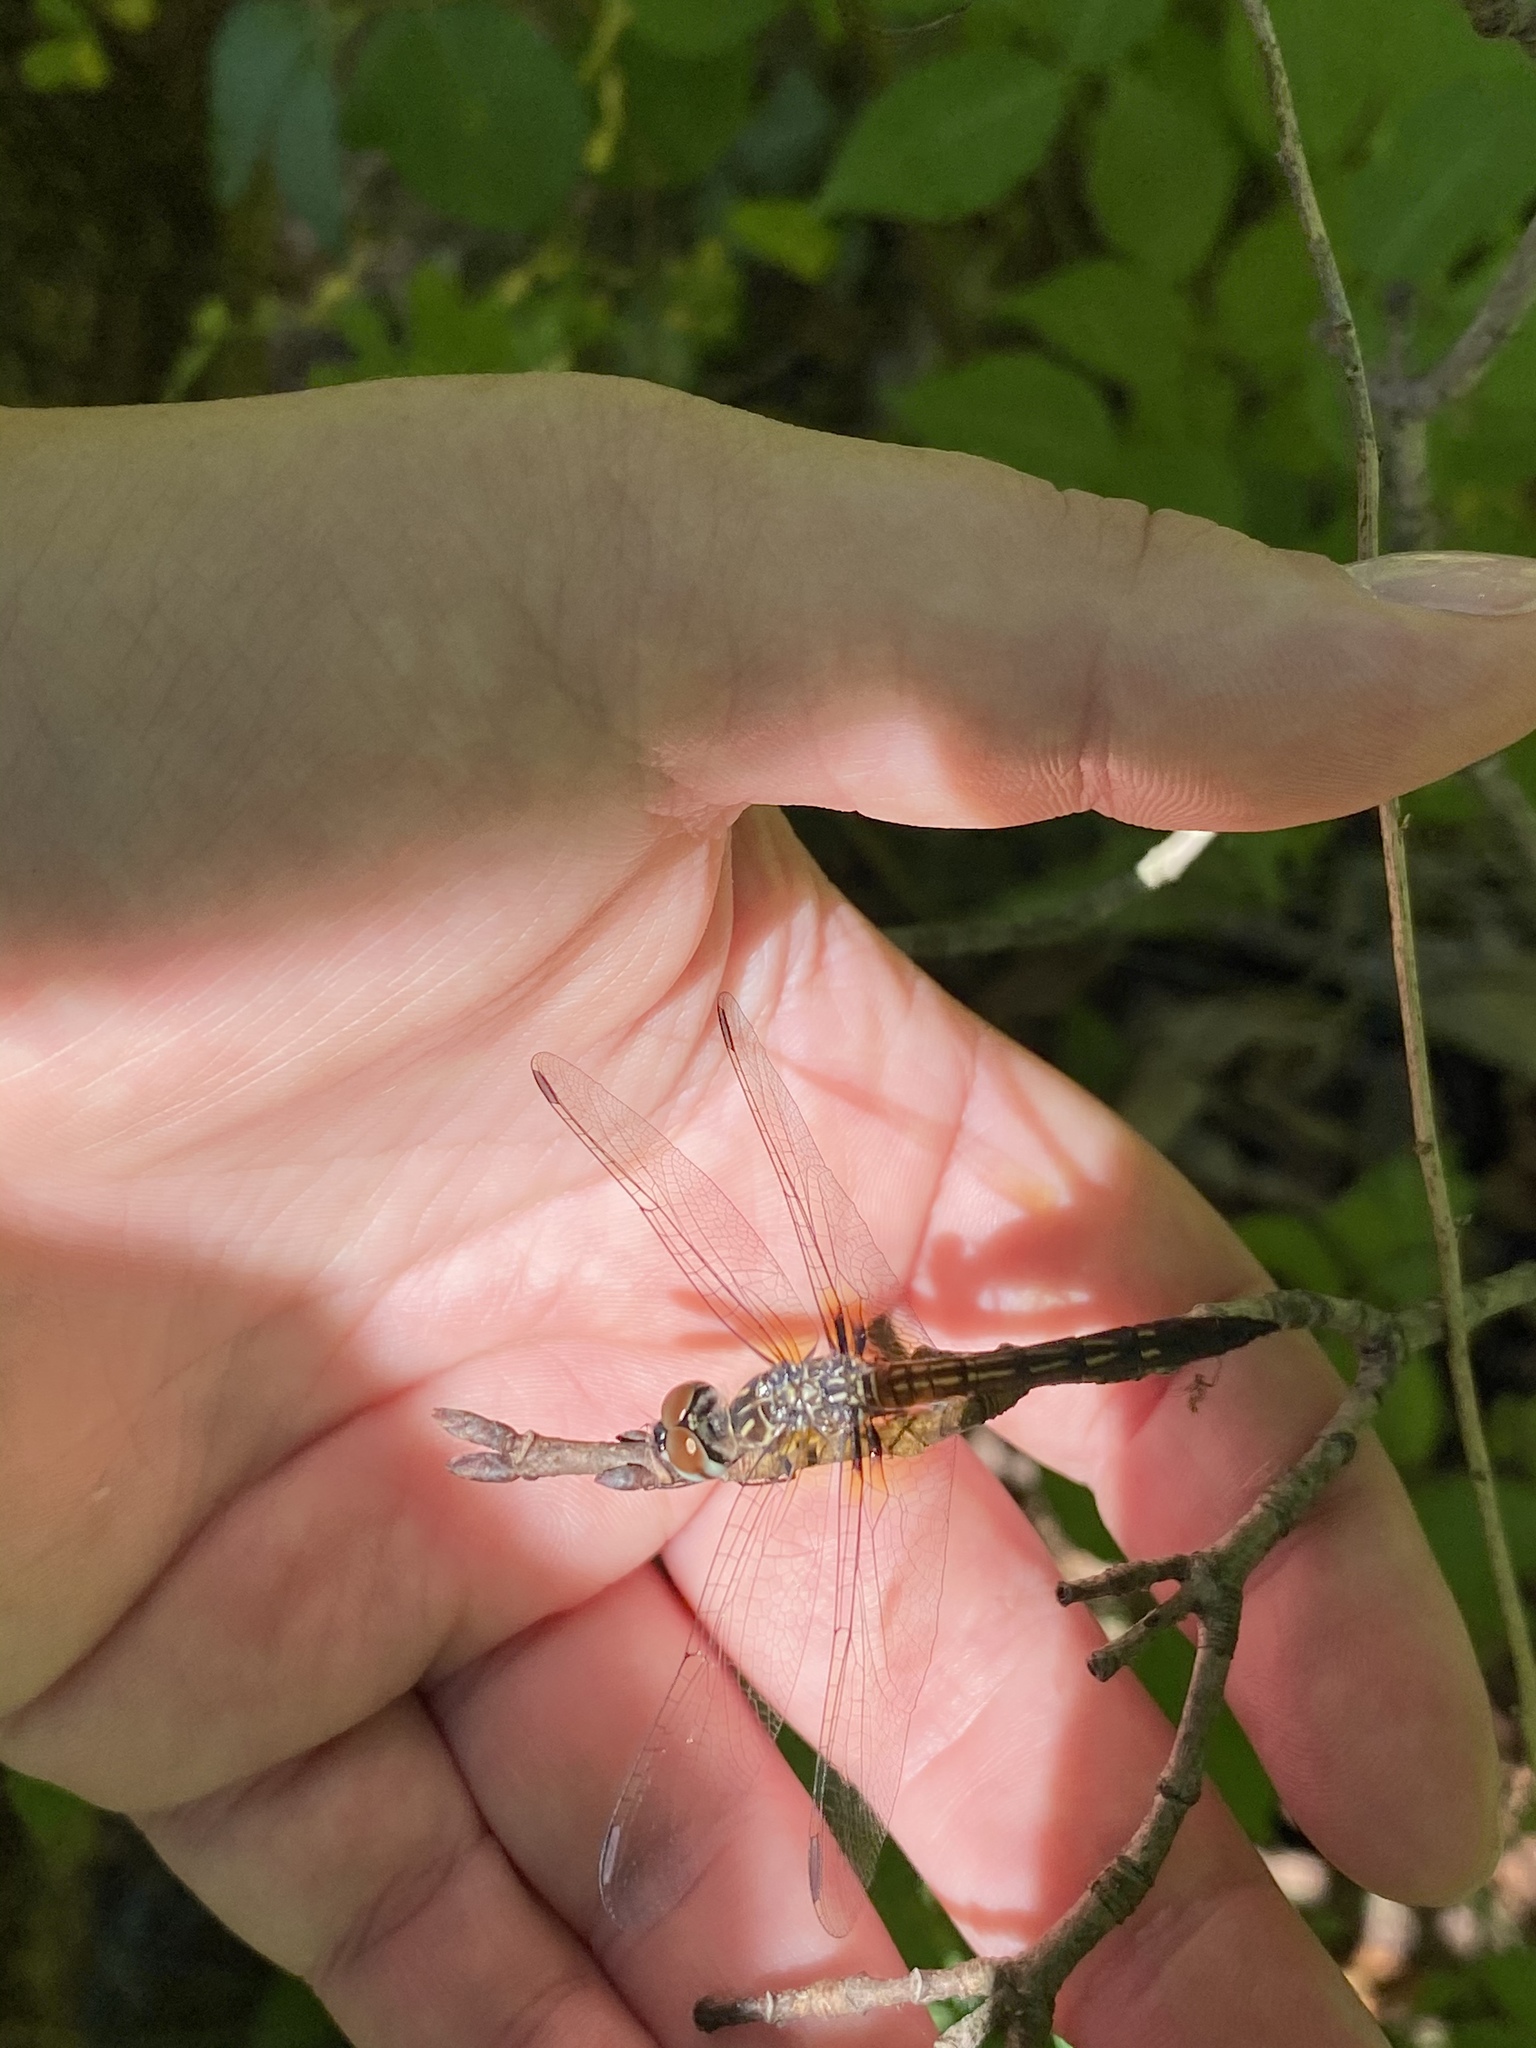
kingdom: Animalia
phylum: Arthropoda
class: Insecta
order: Odonata
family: Libellulidae
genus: Pachydiplax
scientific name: Pachydiplax longipennis
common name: Blue dasher
